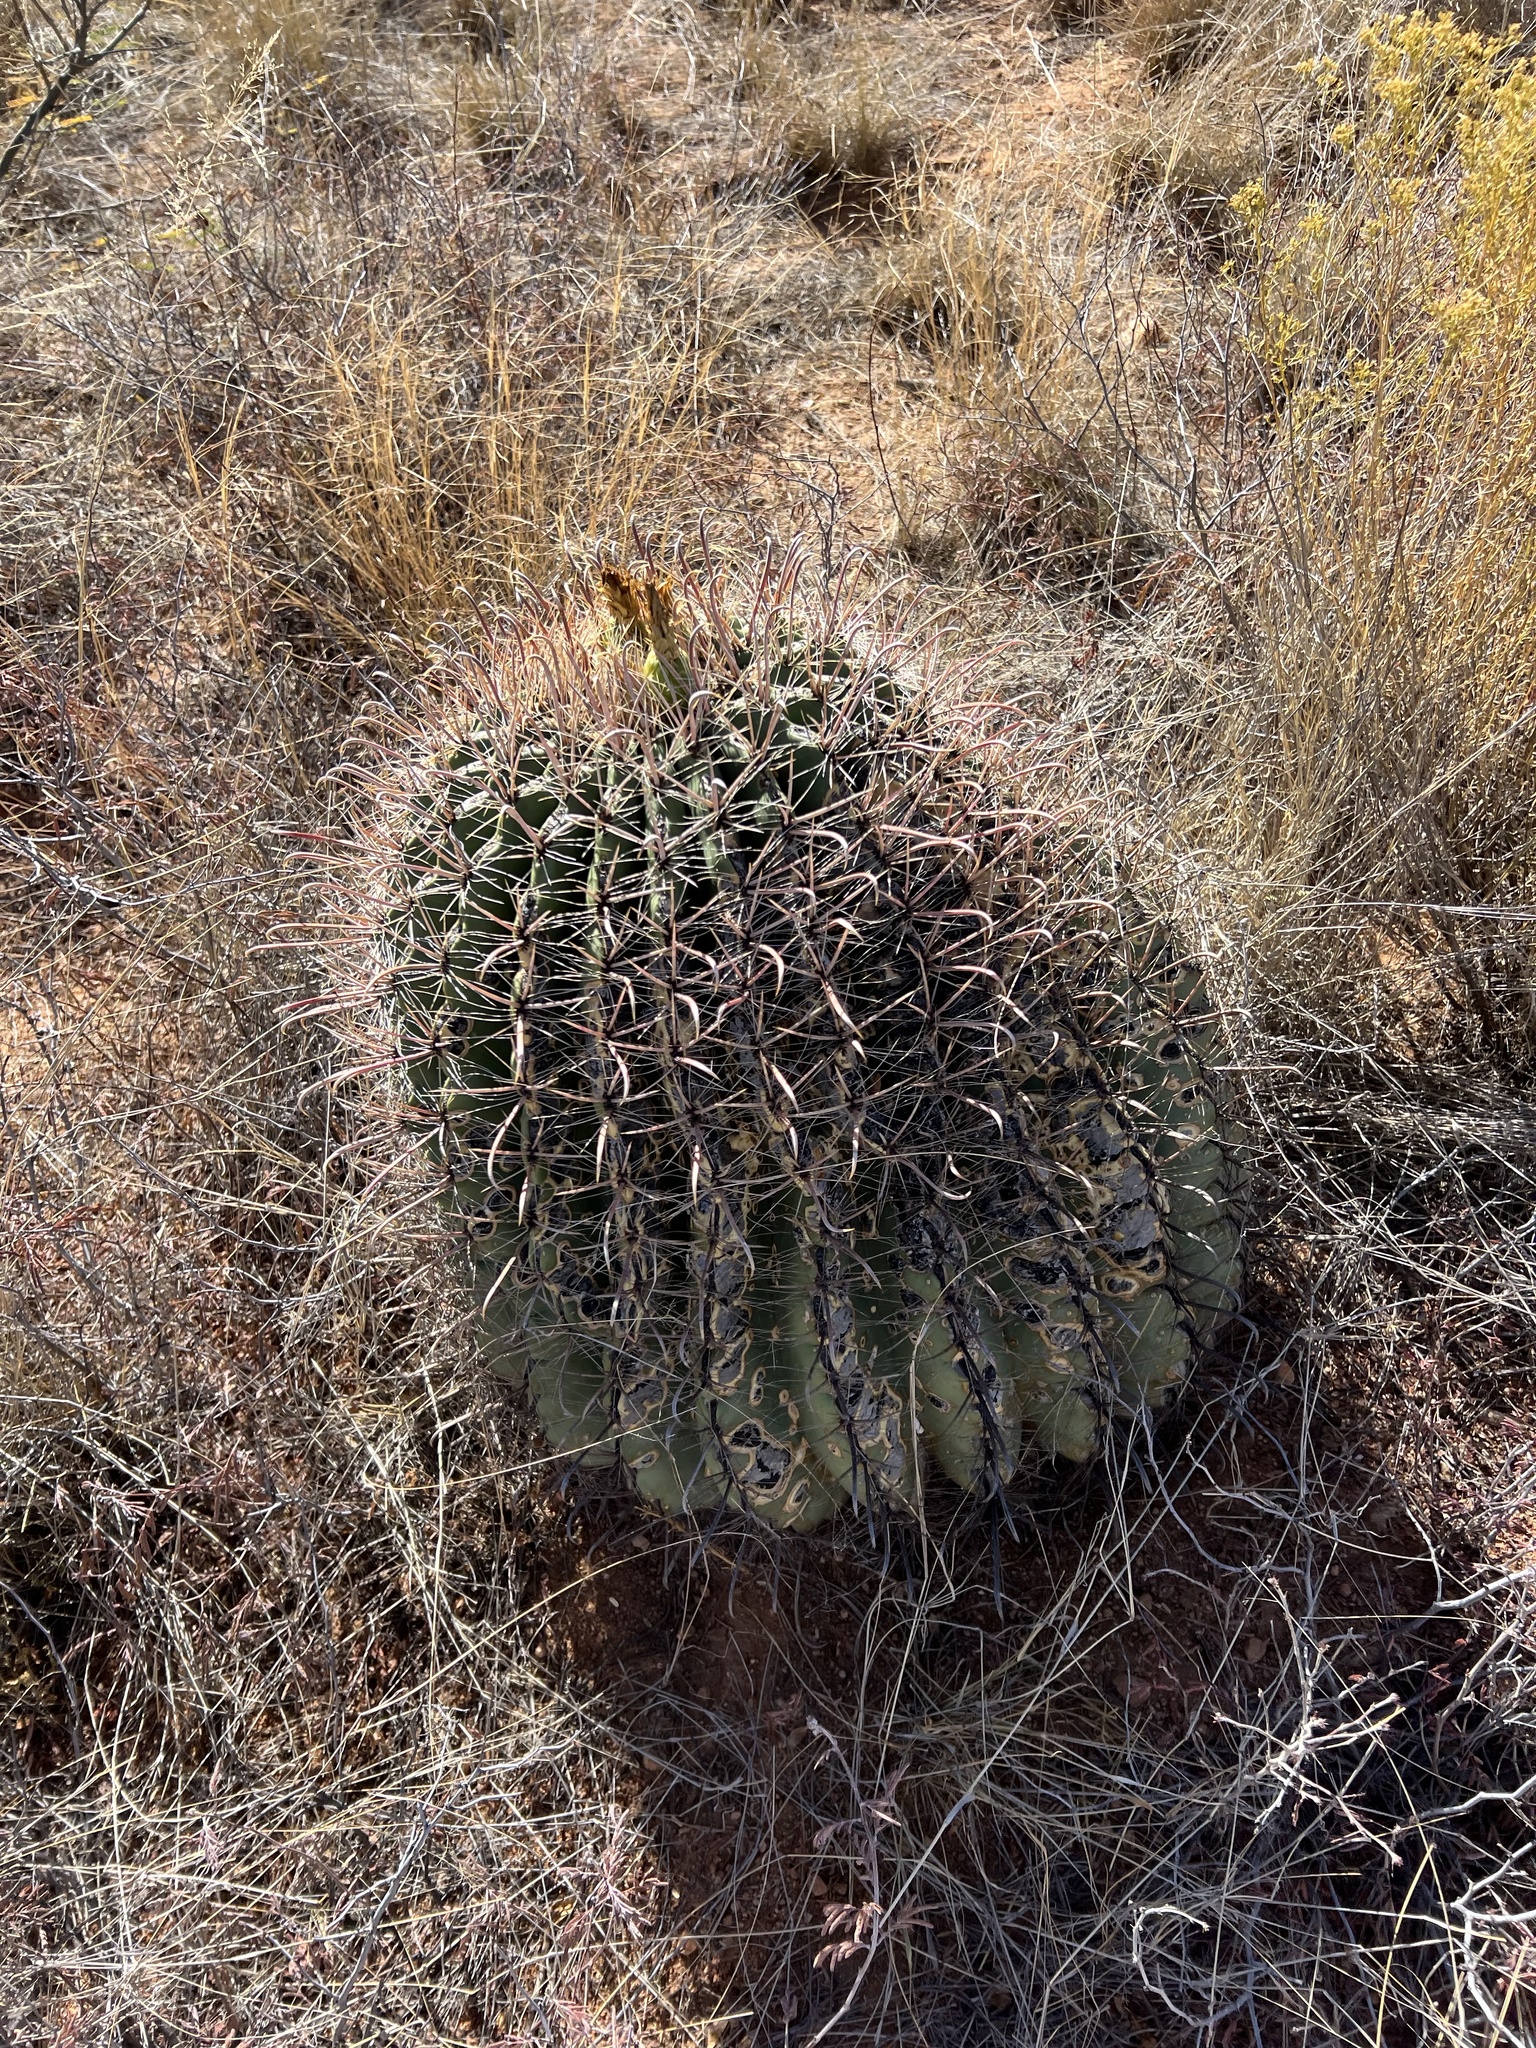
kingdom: Plantae
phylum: Tracheophyta
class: Magnoliopsida
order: Caryophyllales
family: Cactaceae
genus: Ferocactus
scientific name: Ferocactus wislizeni
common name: Candy barrel cactus
